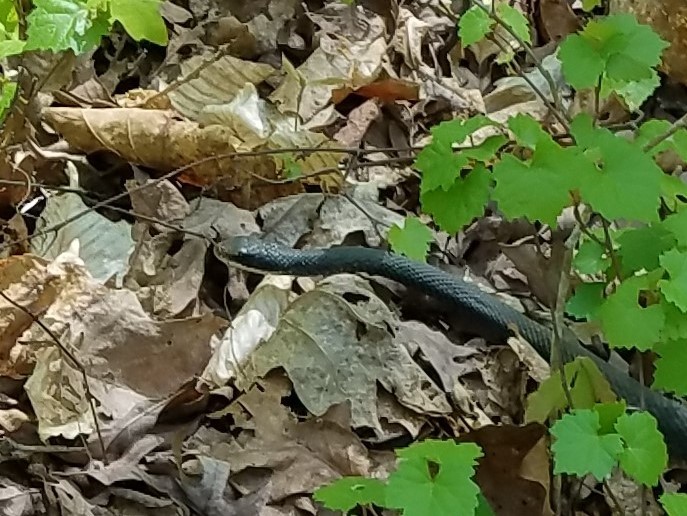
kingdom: Animalia
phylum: Chordata
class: Squamata
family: Colubridae
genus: Coluber
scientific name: Coluber constrictor
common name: Eastern racer
